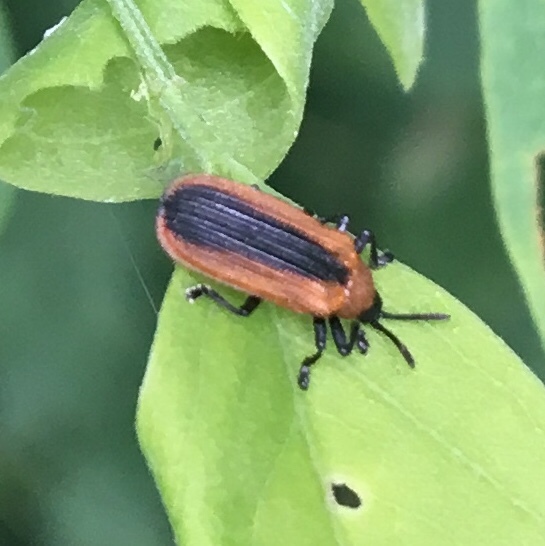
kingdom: Animalia
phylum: Arthropoda
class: Insecta
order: Coleoptera
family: Chrysomelidae
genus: Odontota
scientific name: Odontota dorsalis
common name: Locust leaf-miner beetle
